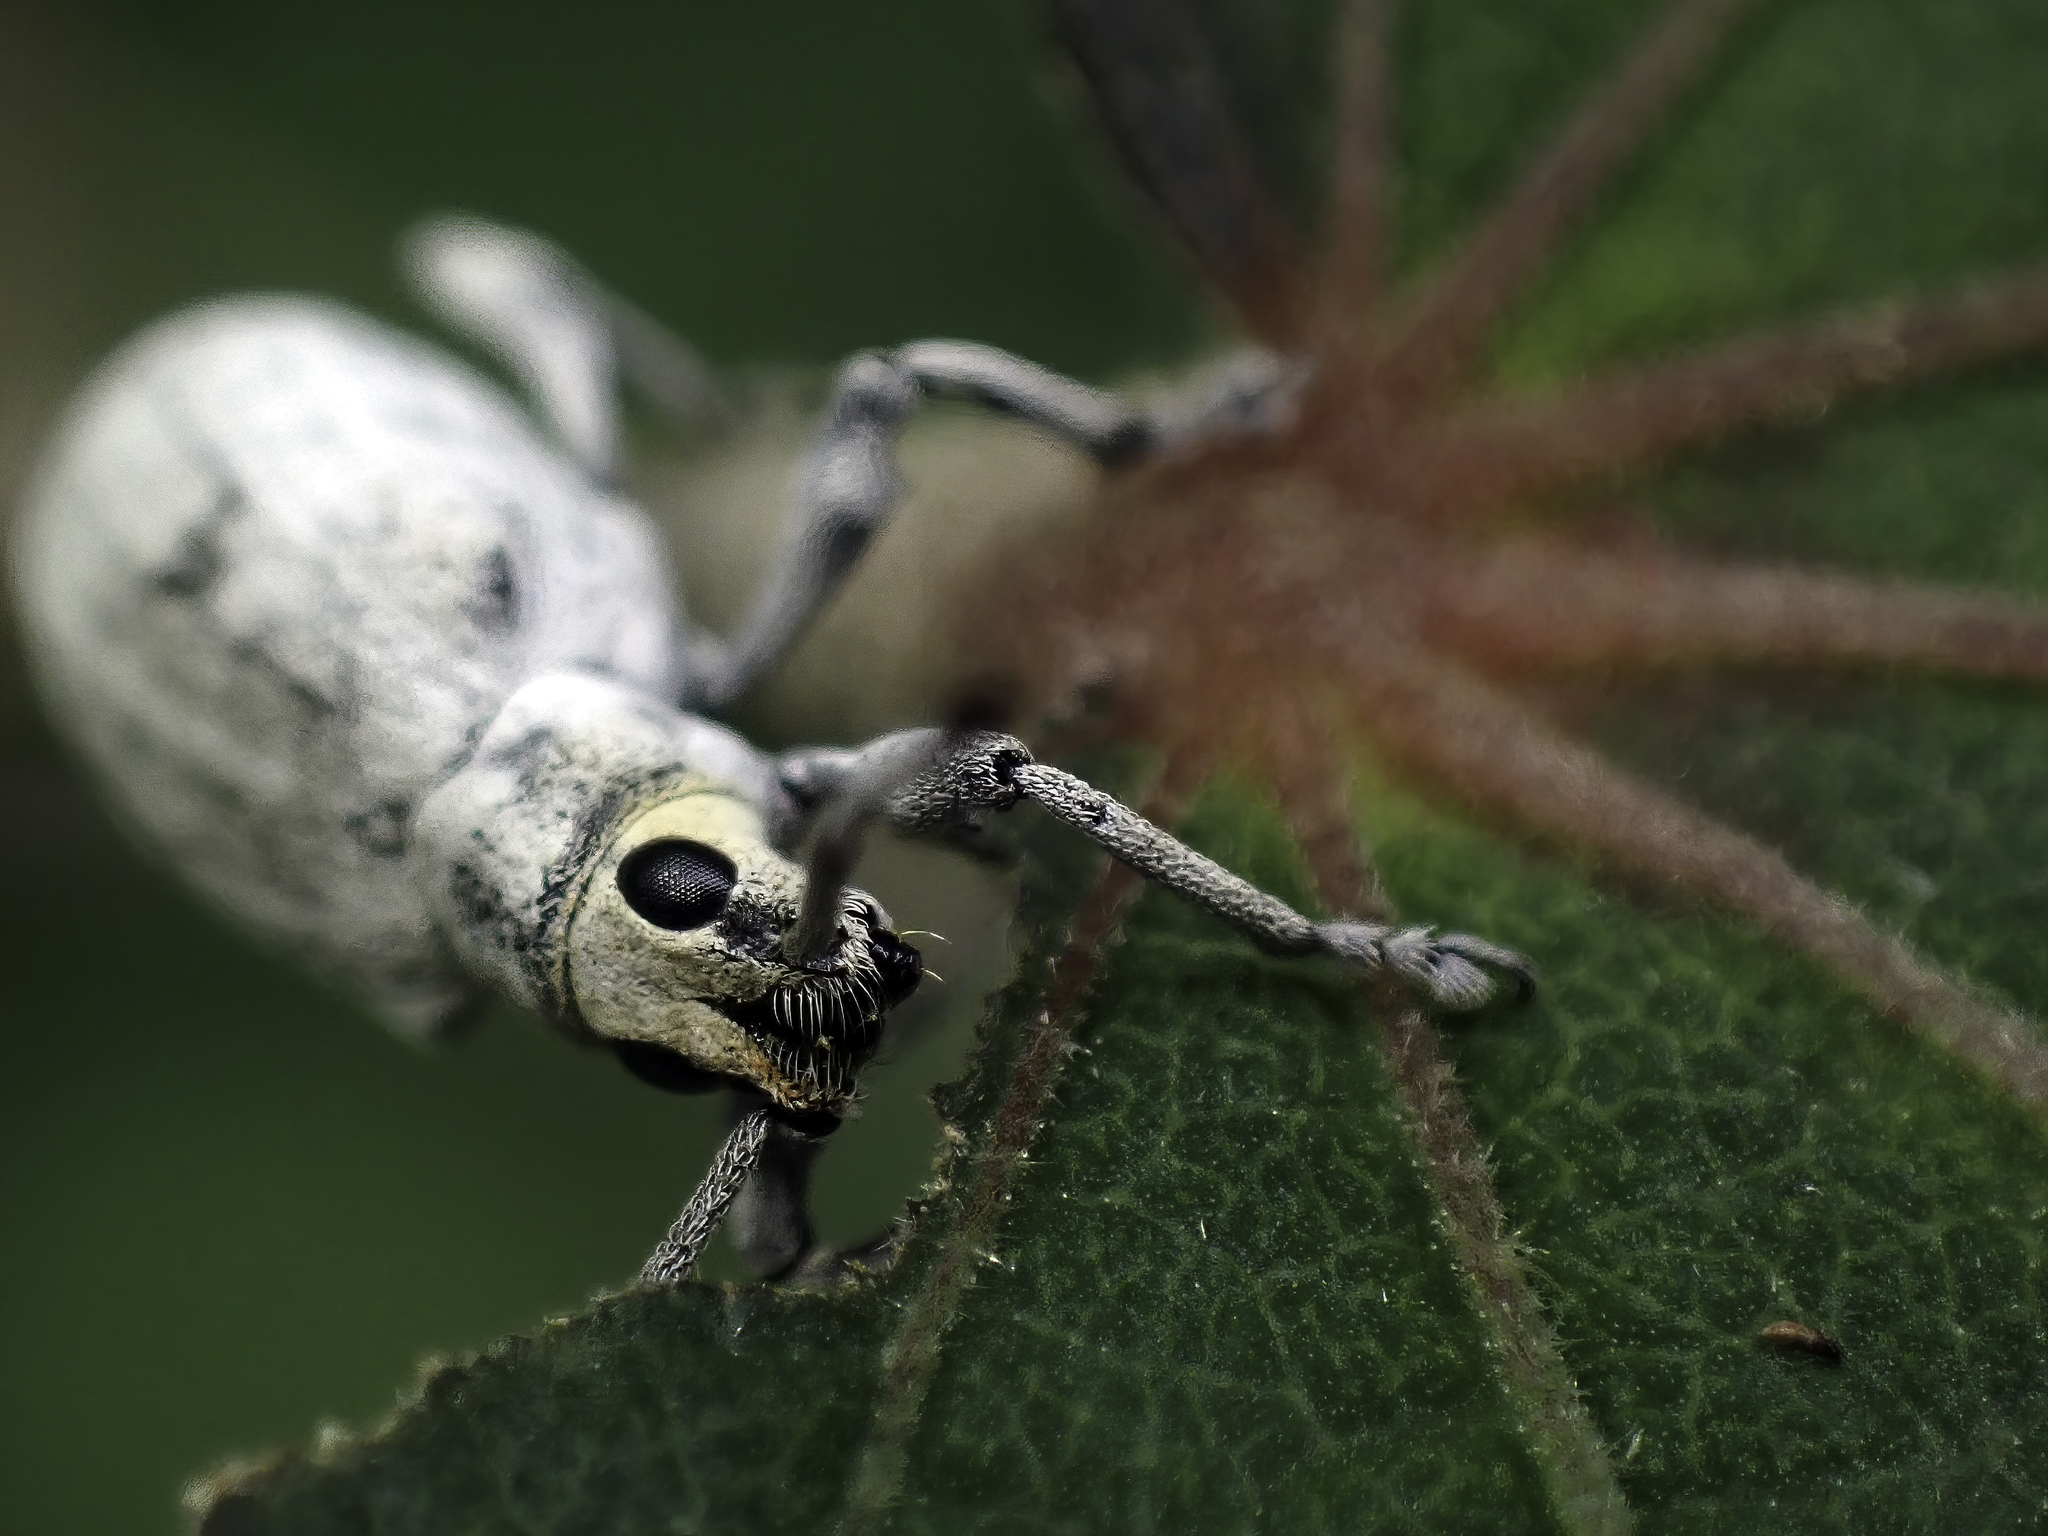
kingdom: Animalia
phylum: Arthropoda
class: Insecta
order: Coleoptera
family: Curculionidae
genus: Myllocerus
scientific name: Myllocerus undecimpustulatus
